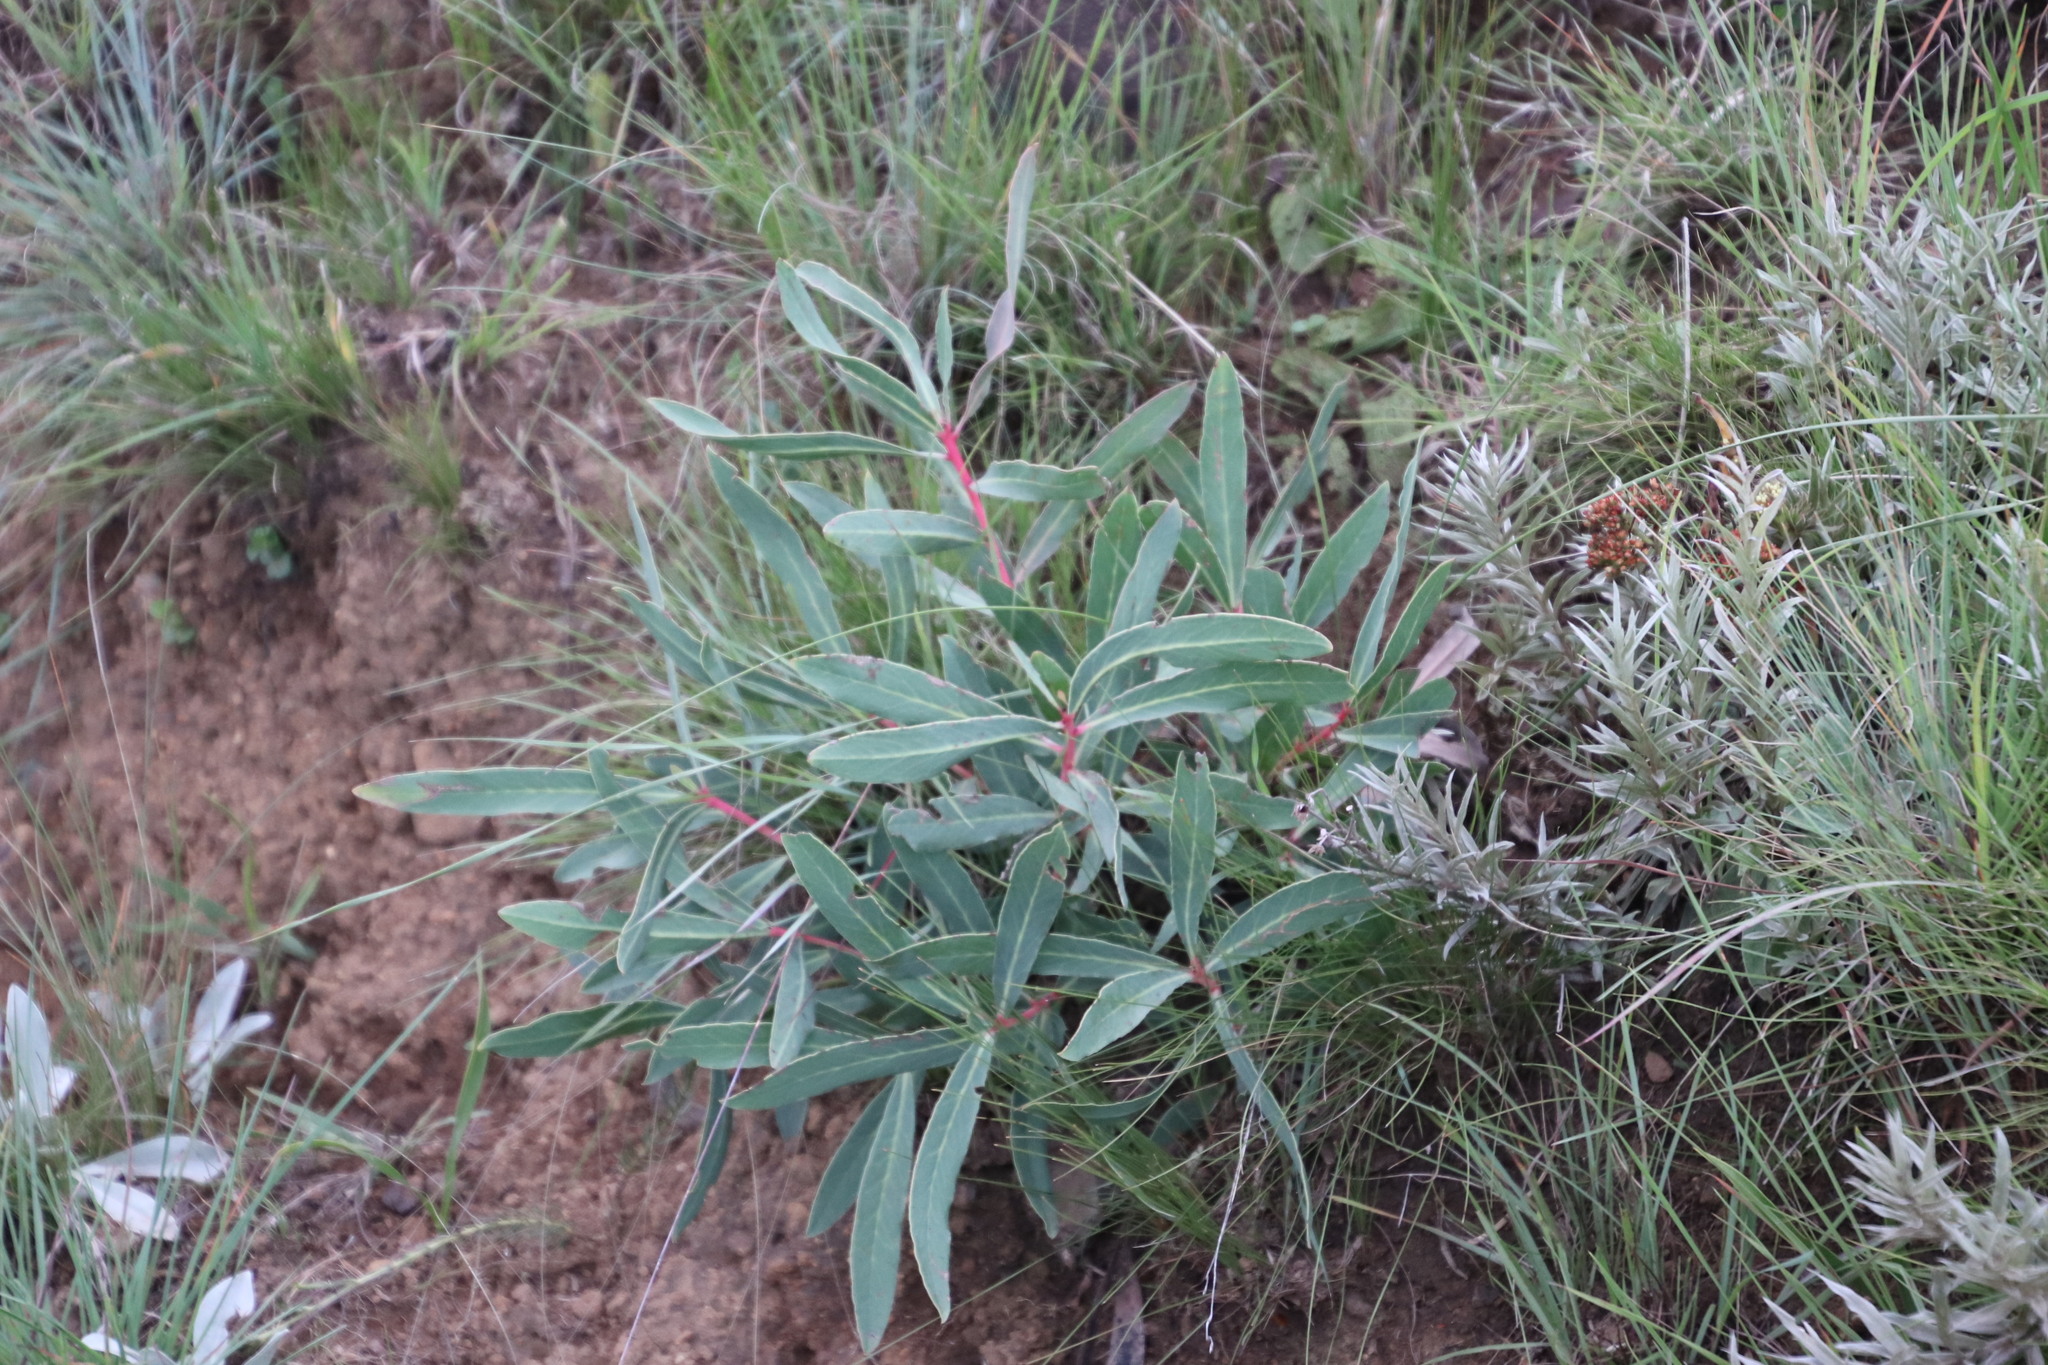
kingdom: Plantae
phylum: Tracheophyta
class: Magnoliopsida
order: Proteales
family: Proteaceae
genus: Protea
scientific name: Protea simplex
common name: Dwarf grassveld sugarbush
